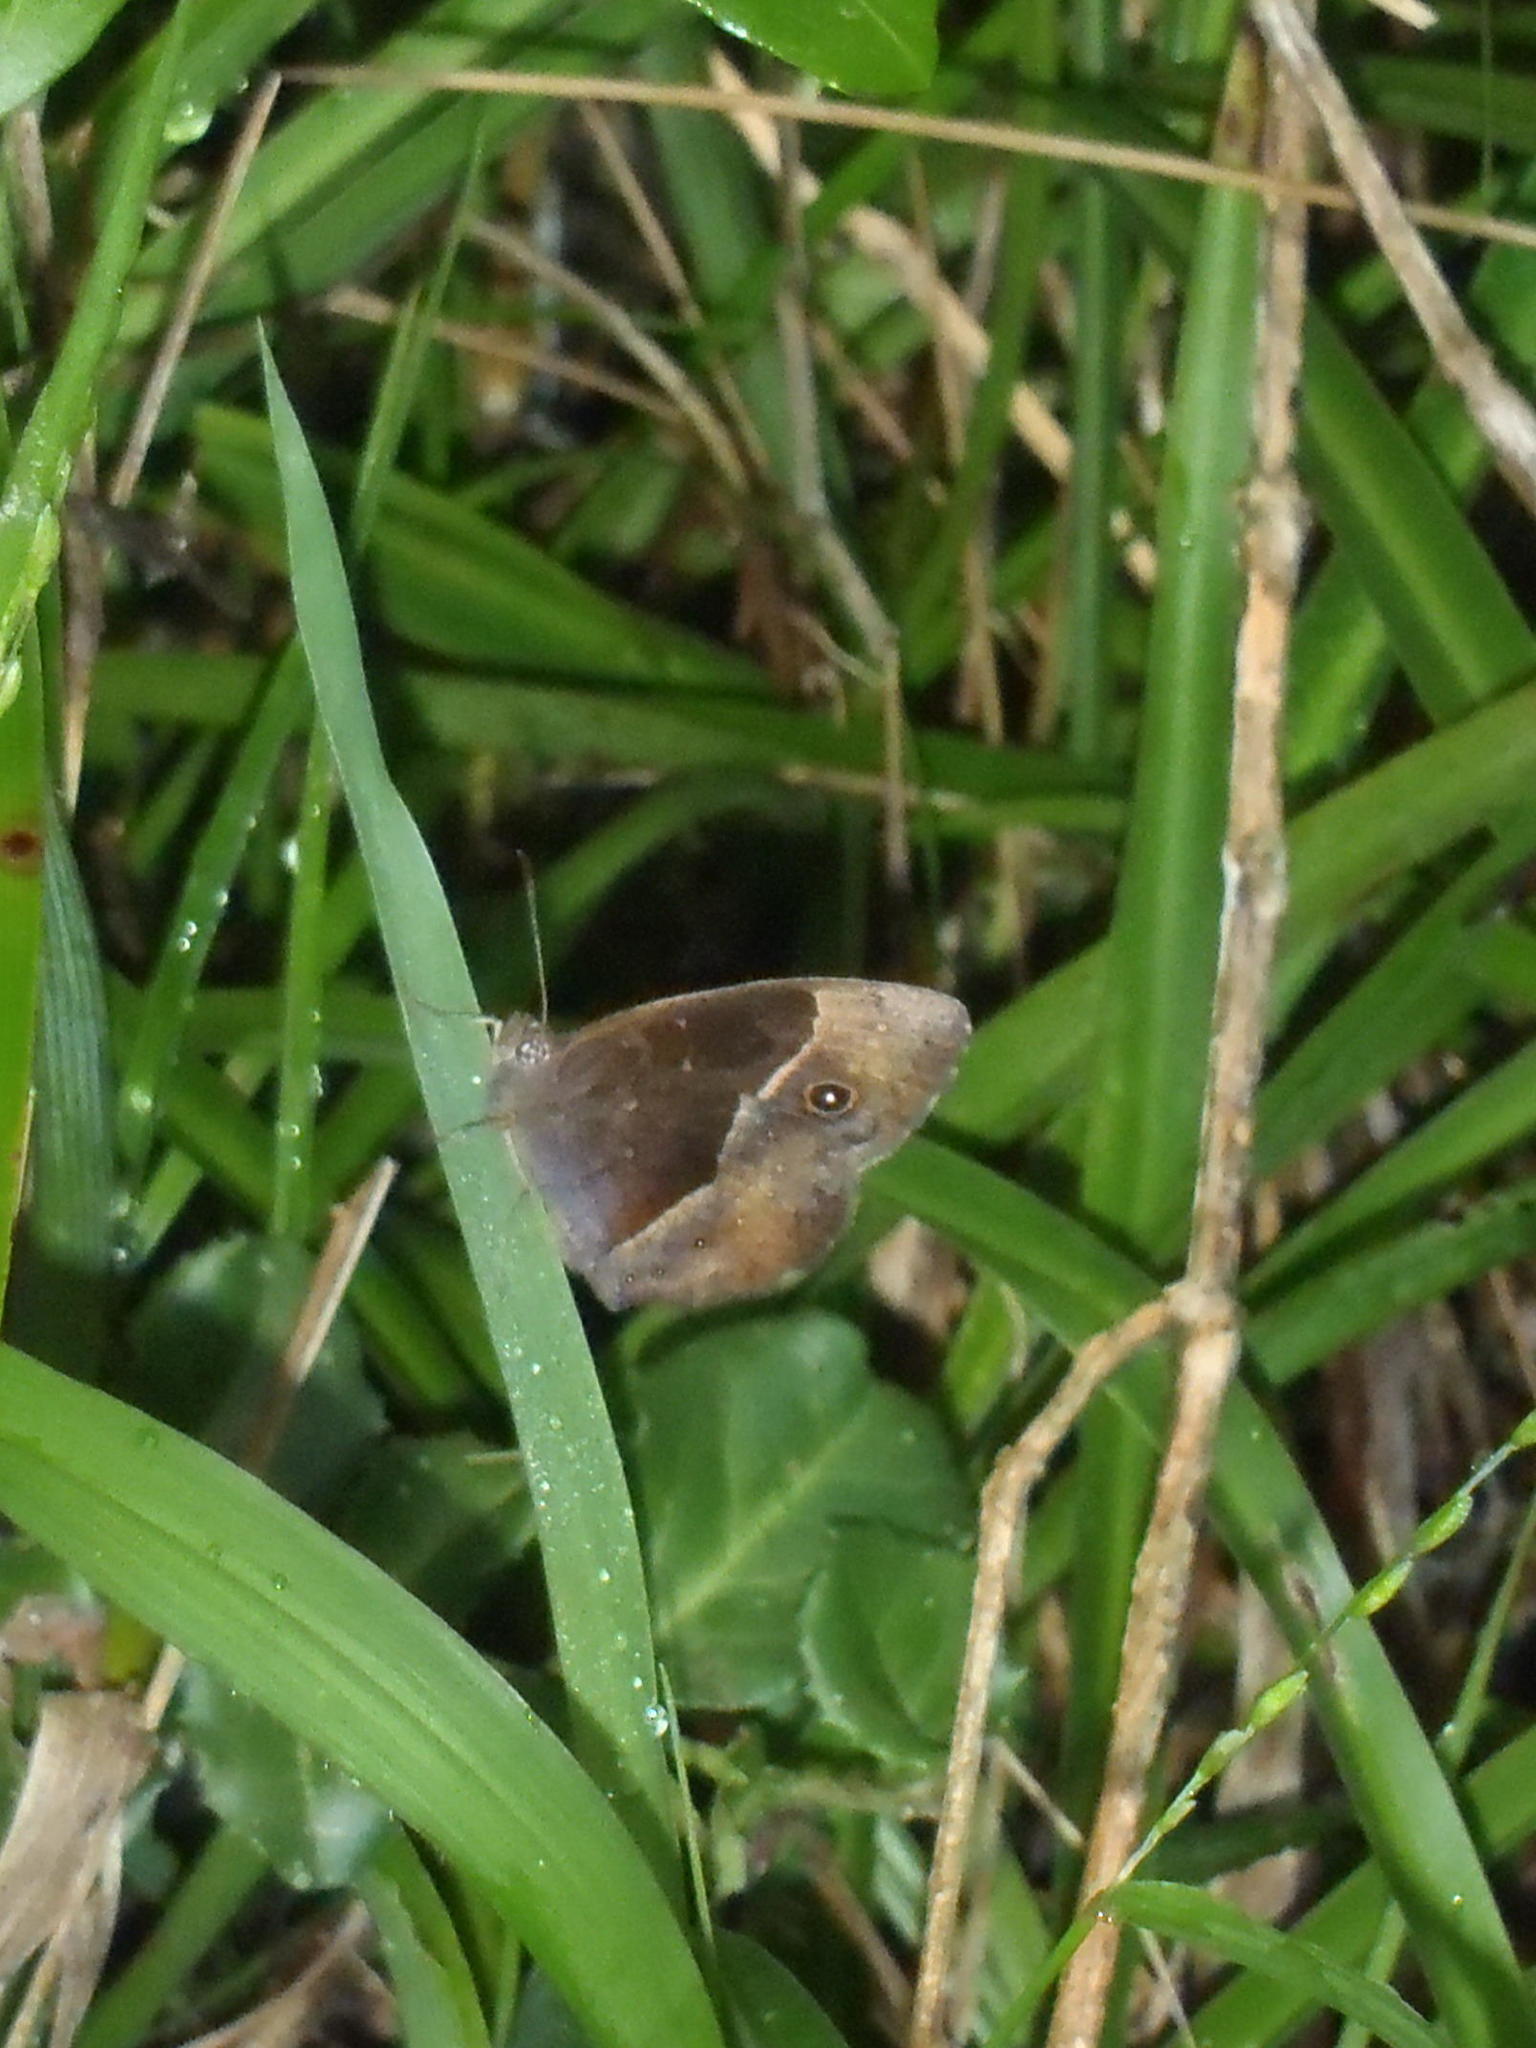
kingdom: Animalia
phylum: Arthropoda
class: Insecta
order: Lepidoptera
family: Nymphalidae
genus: Mycalesis
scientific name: Mycalesis rhacotis
